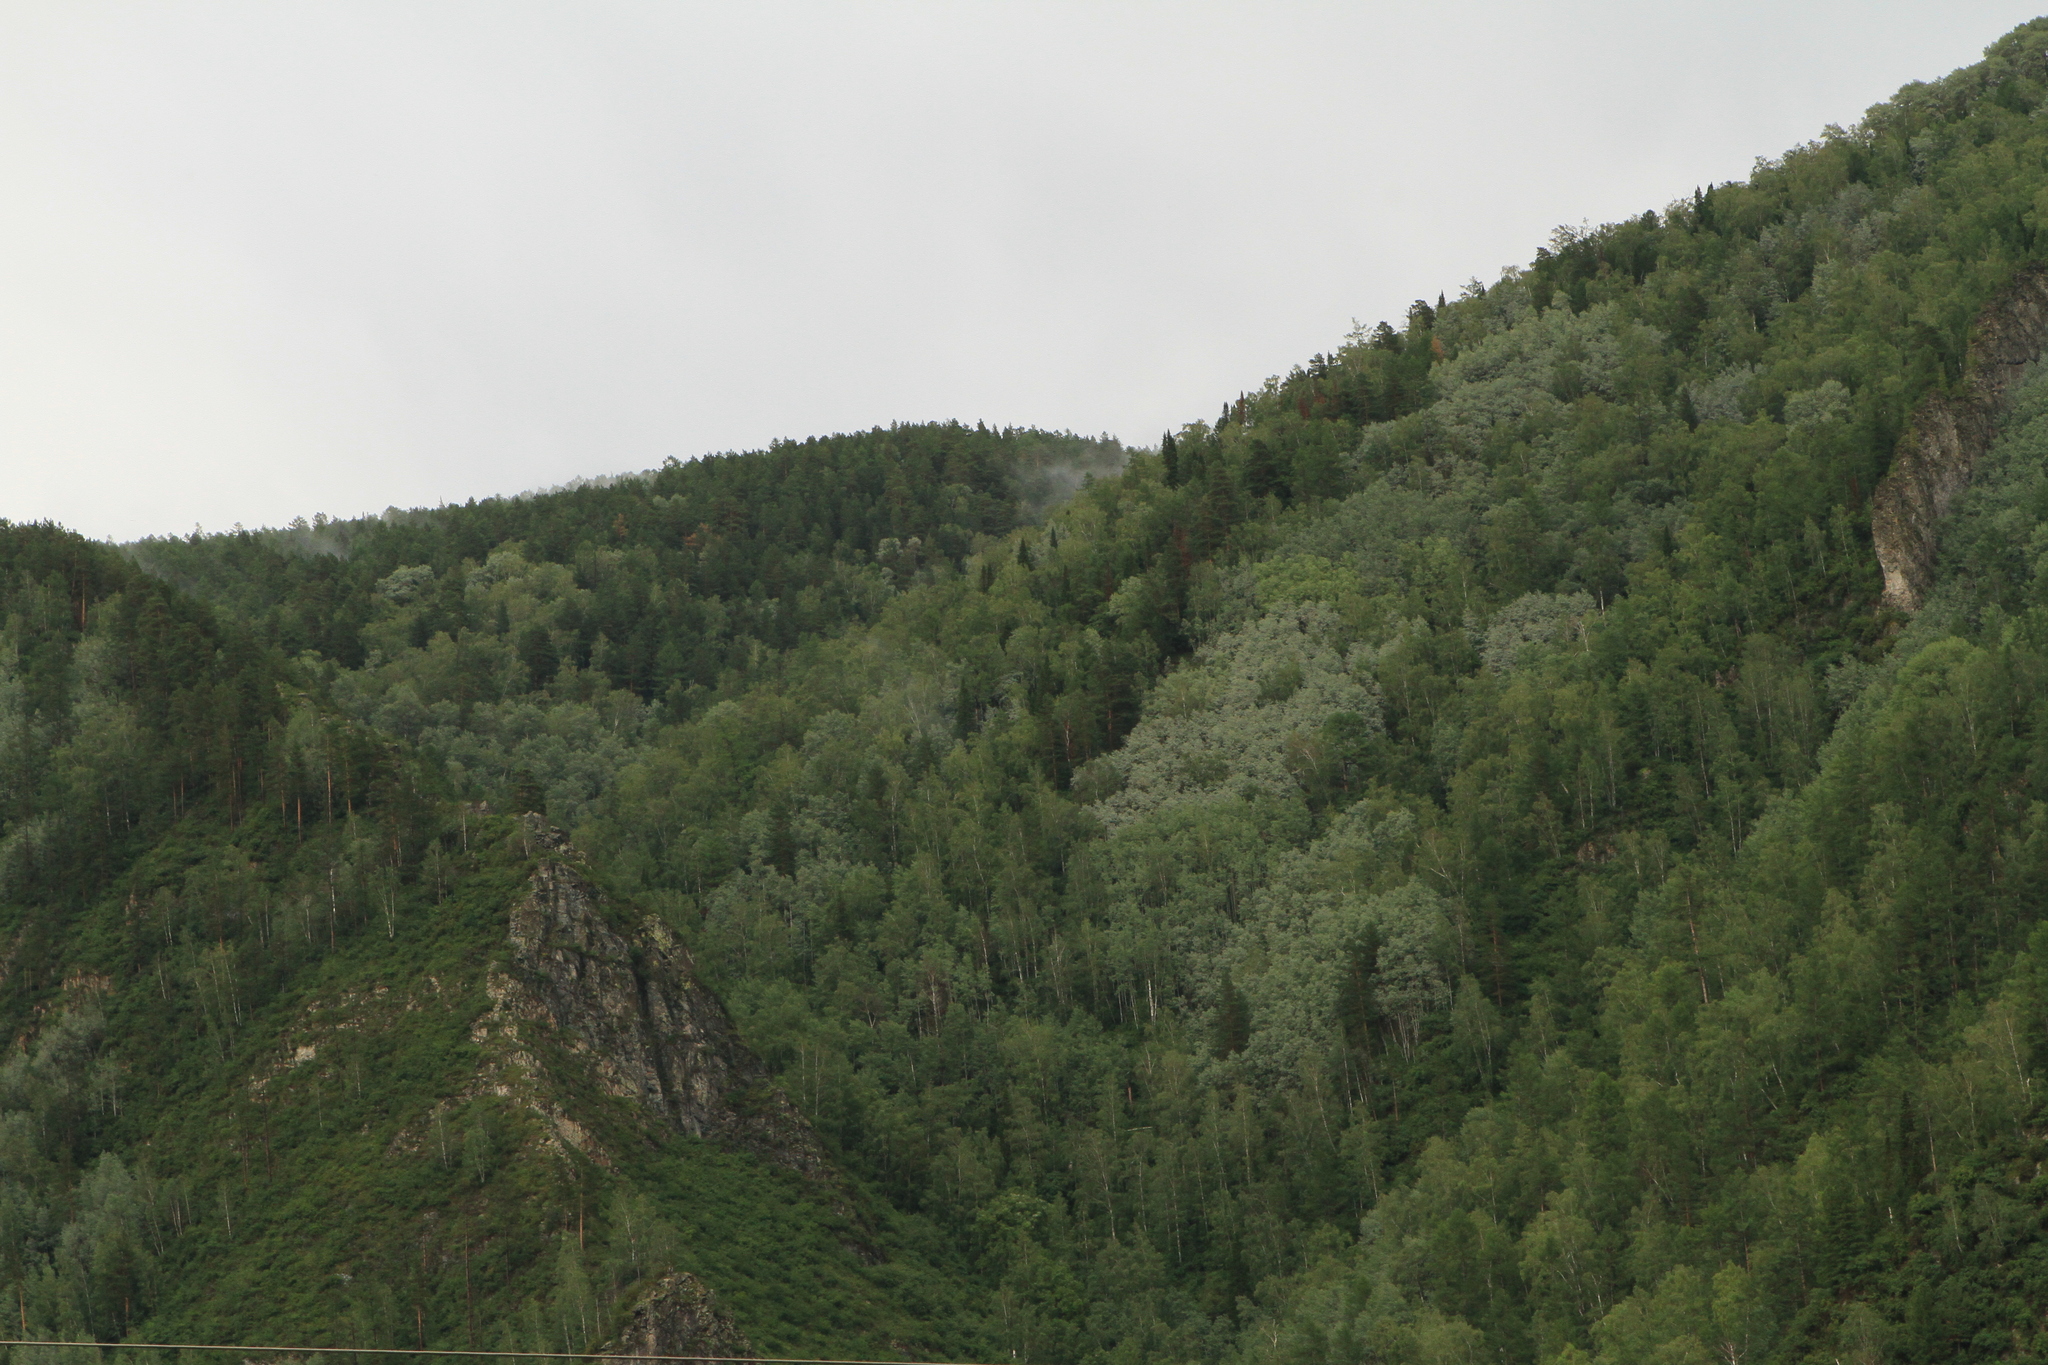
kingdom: Plantae
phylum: Tracheophyta
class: Magnoliopsida
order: Malpighiales
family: Salicaceae
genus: Populus
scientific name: Populus tremula
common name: European aspen
